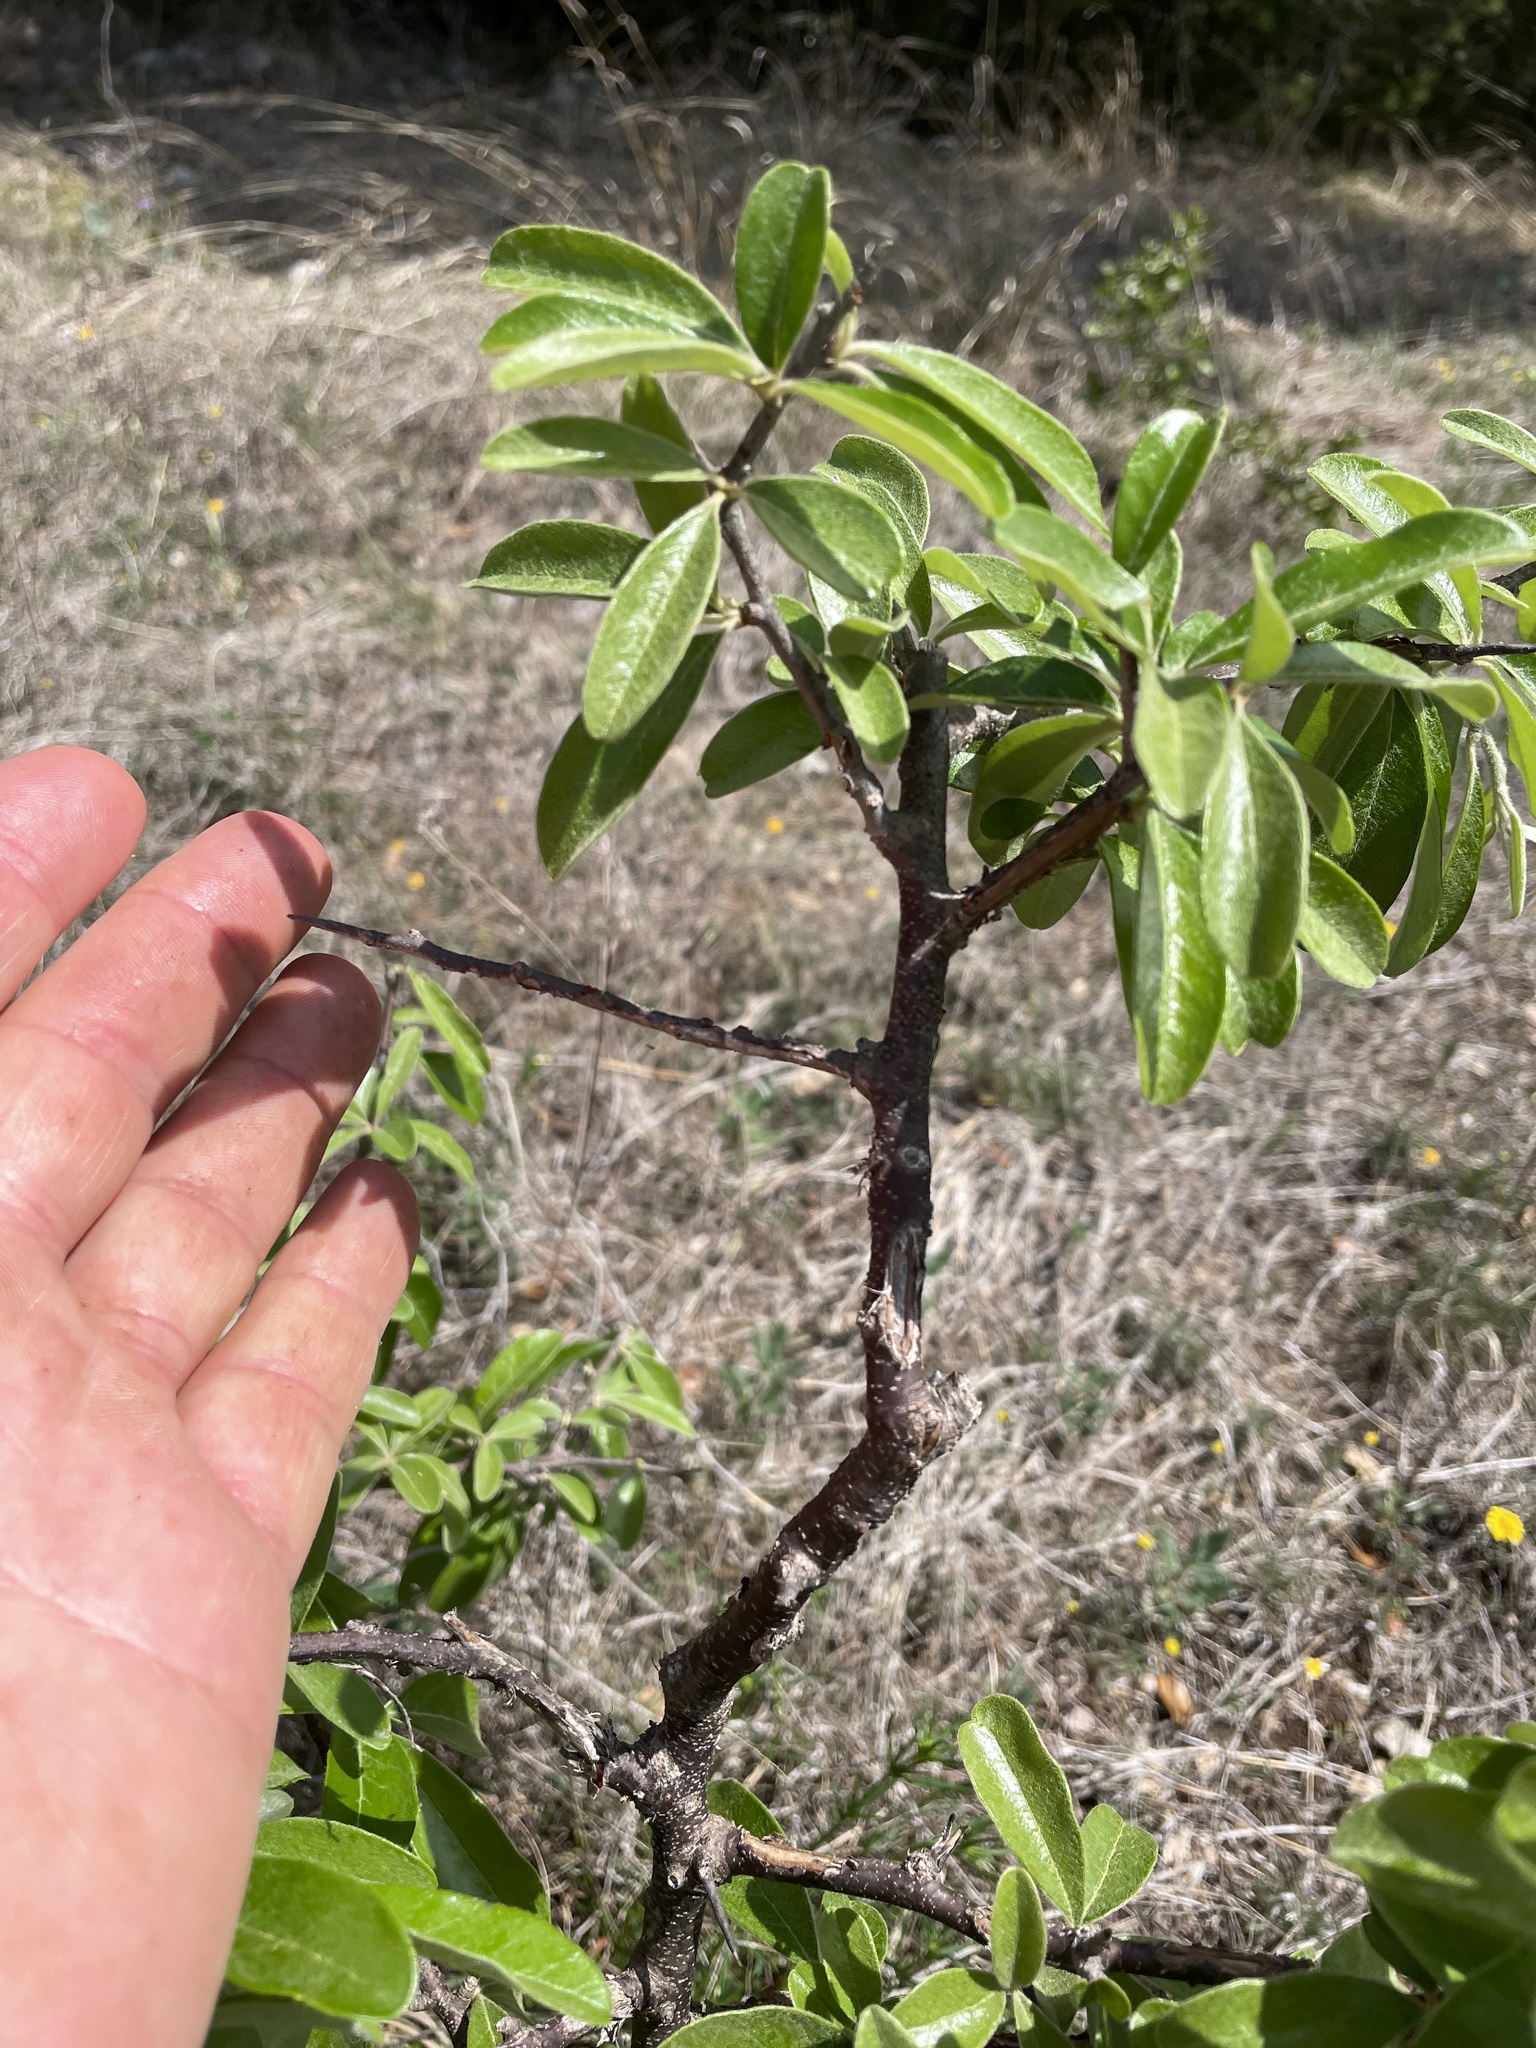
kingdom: Plantae
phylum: Tracheophyta
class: Magnoliopsida
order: Ericales
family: Sapotaceae
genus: Sideroxylon
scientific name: Sideroxylon lanuginosum
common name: Chittamwood
